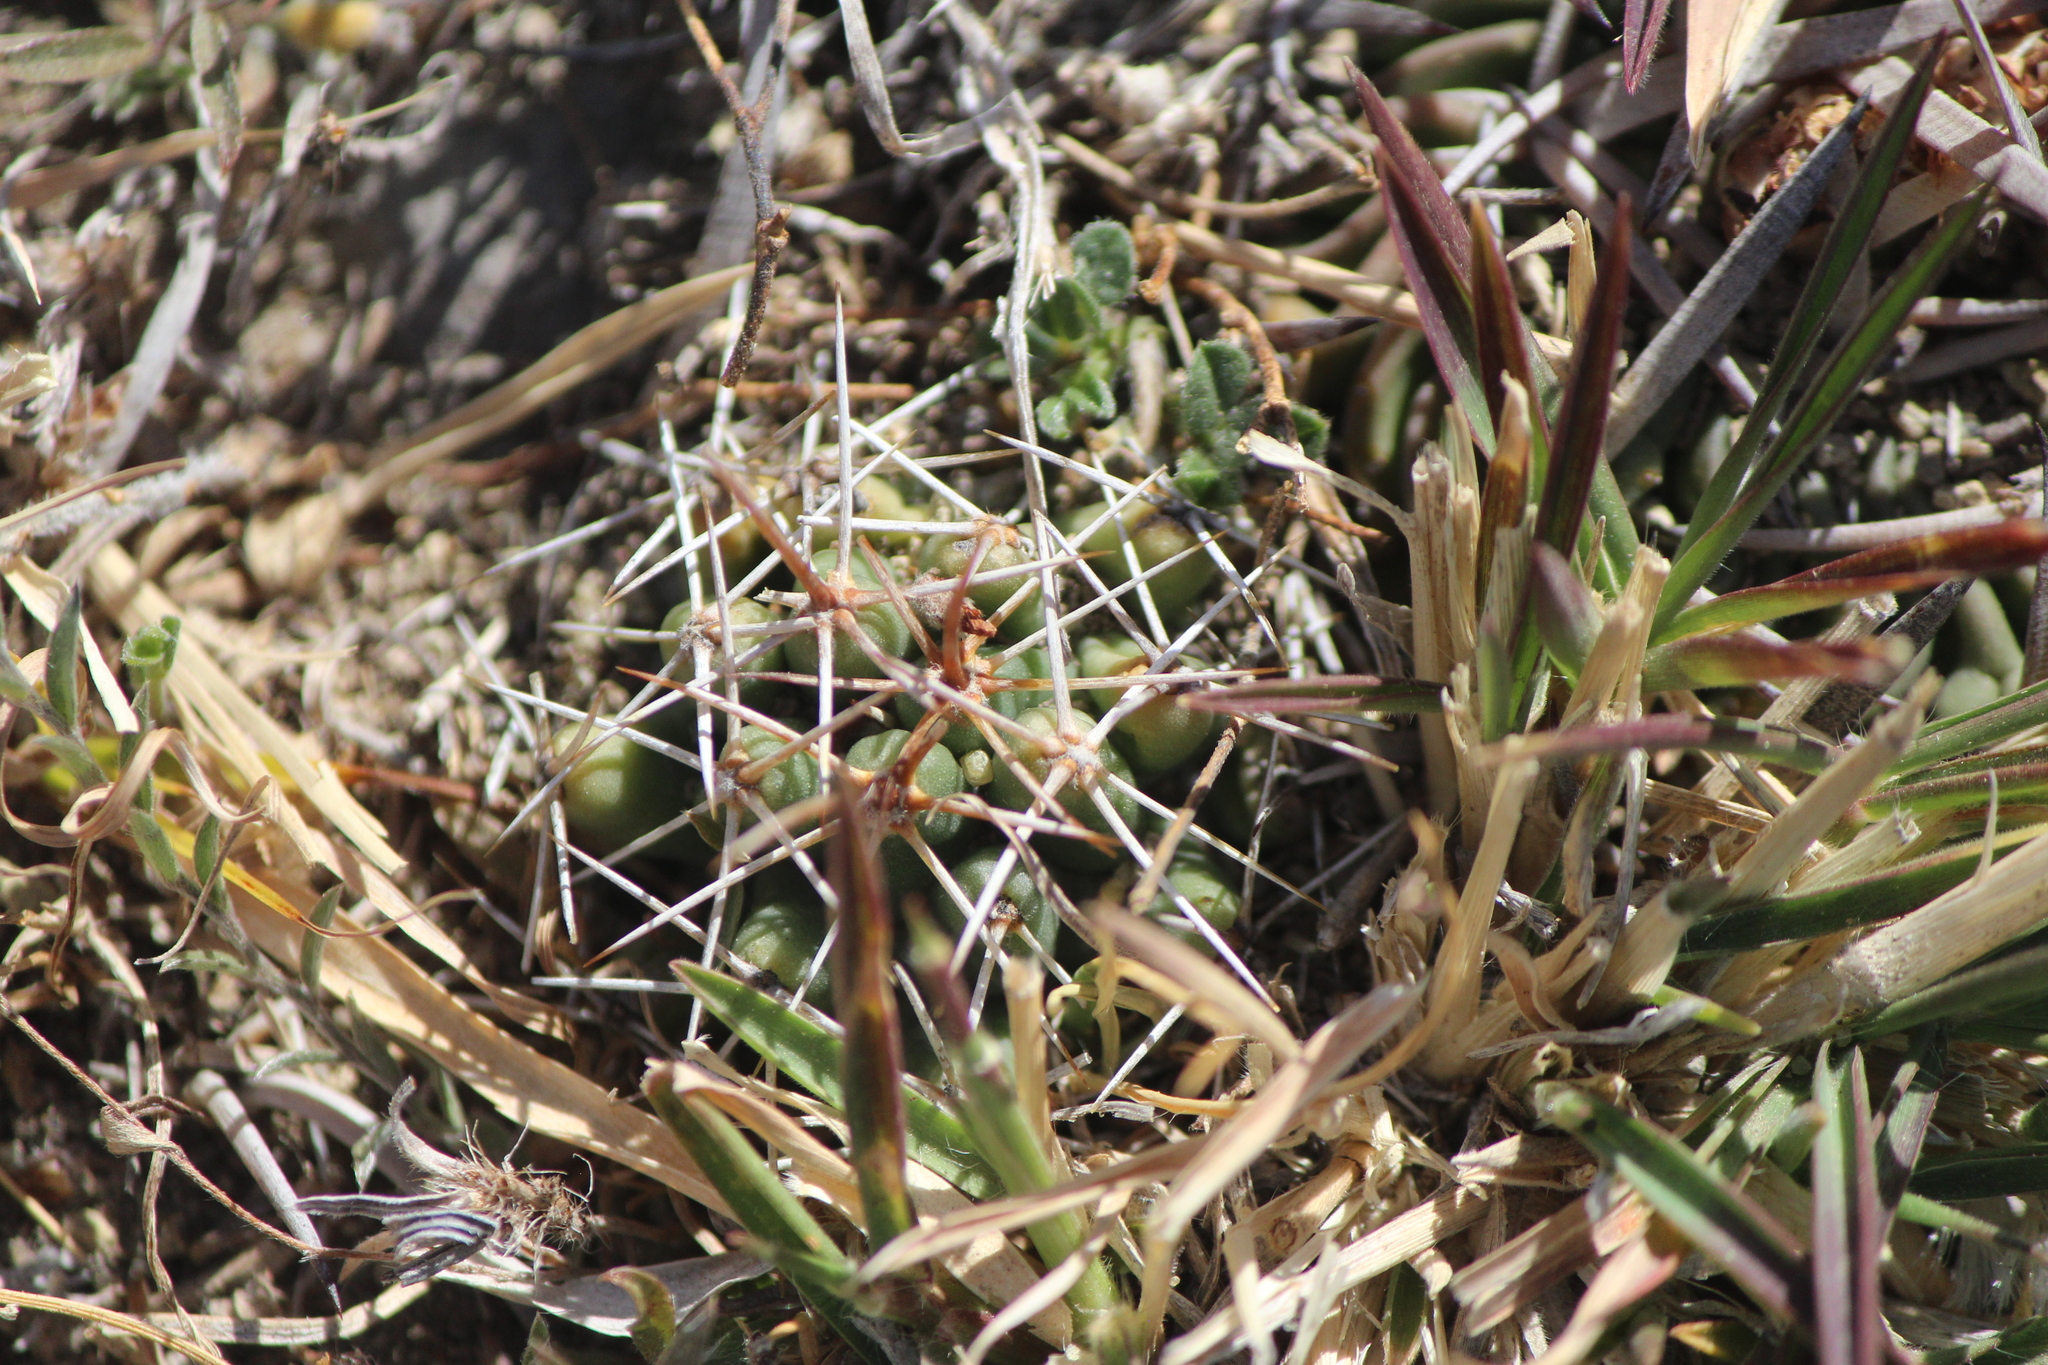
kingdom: Plantae
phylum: Tracheophyta
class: Magnoliopsida
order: Caryophyllales
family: Cactaceae
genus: Coryphantha
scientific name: Coryphantha octacantha
